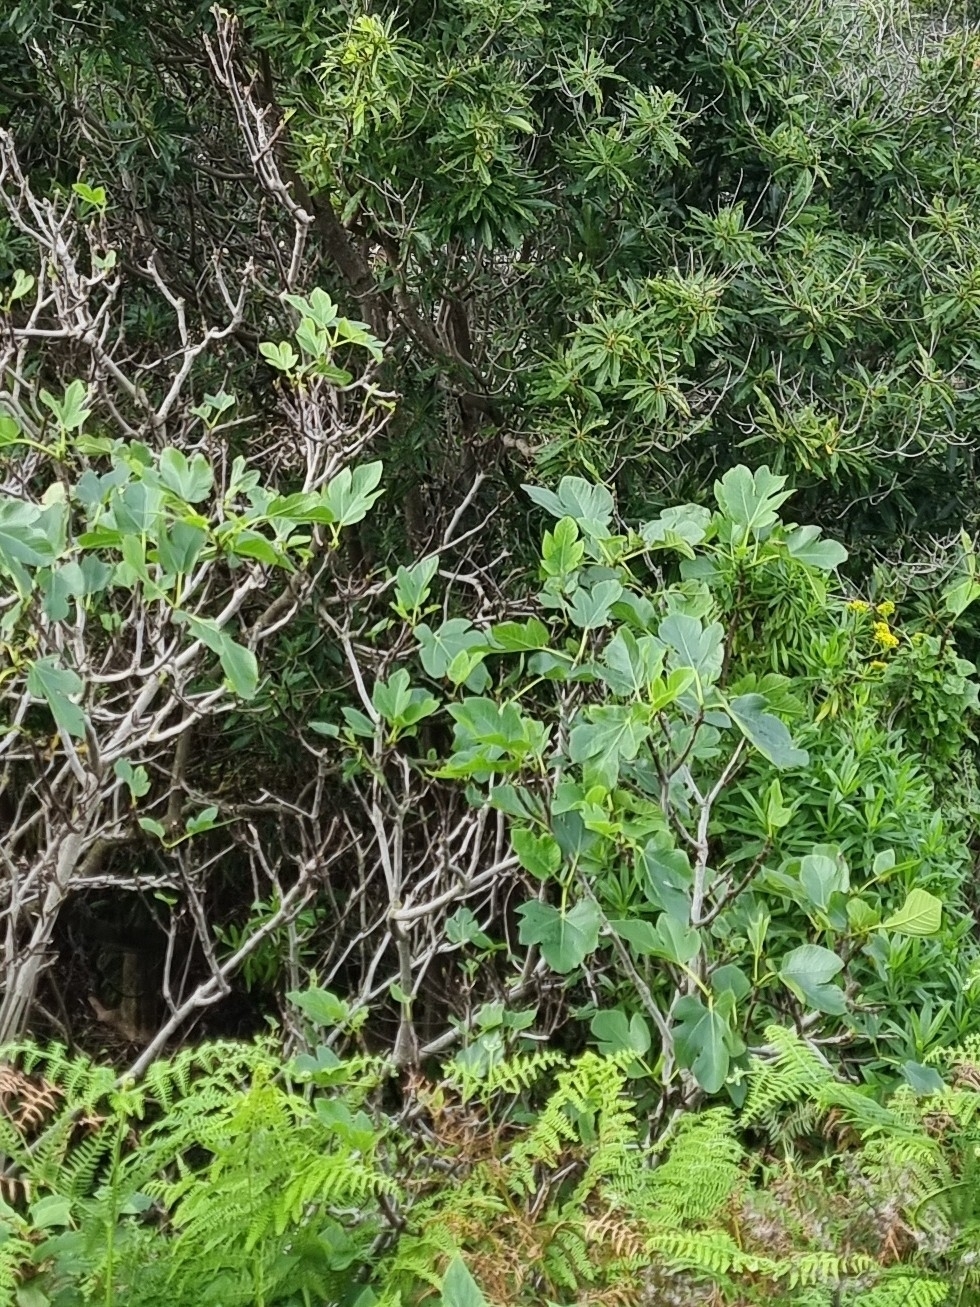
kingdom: Plantae
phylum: Tracheophyta
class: Magnoliopsida
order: Rosales
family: Moraceae
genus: Ficus
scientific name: Ficus carica
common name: Fig
